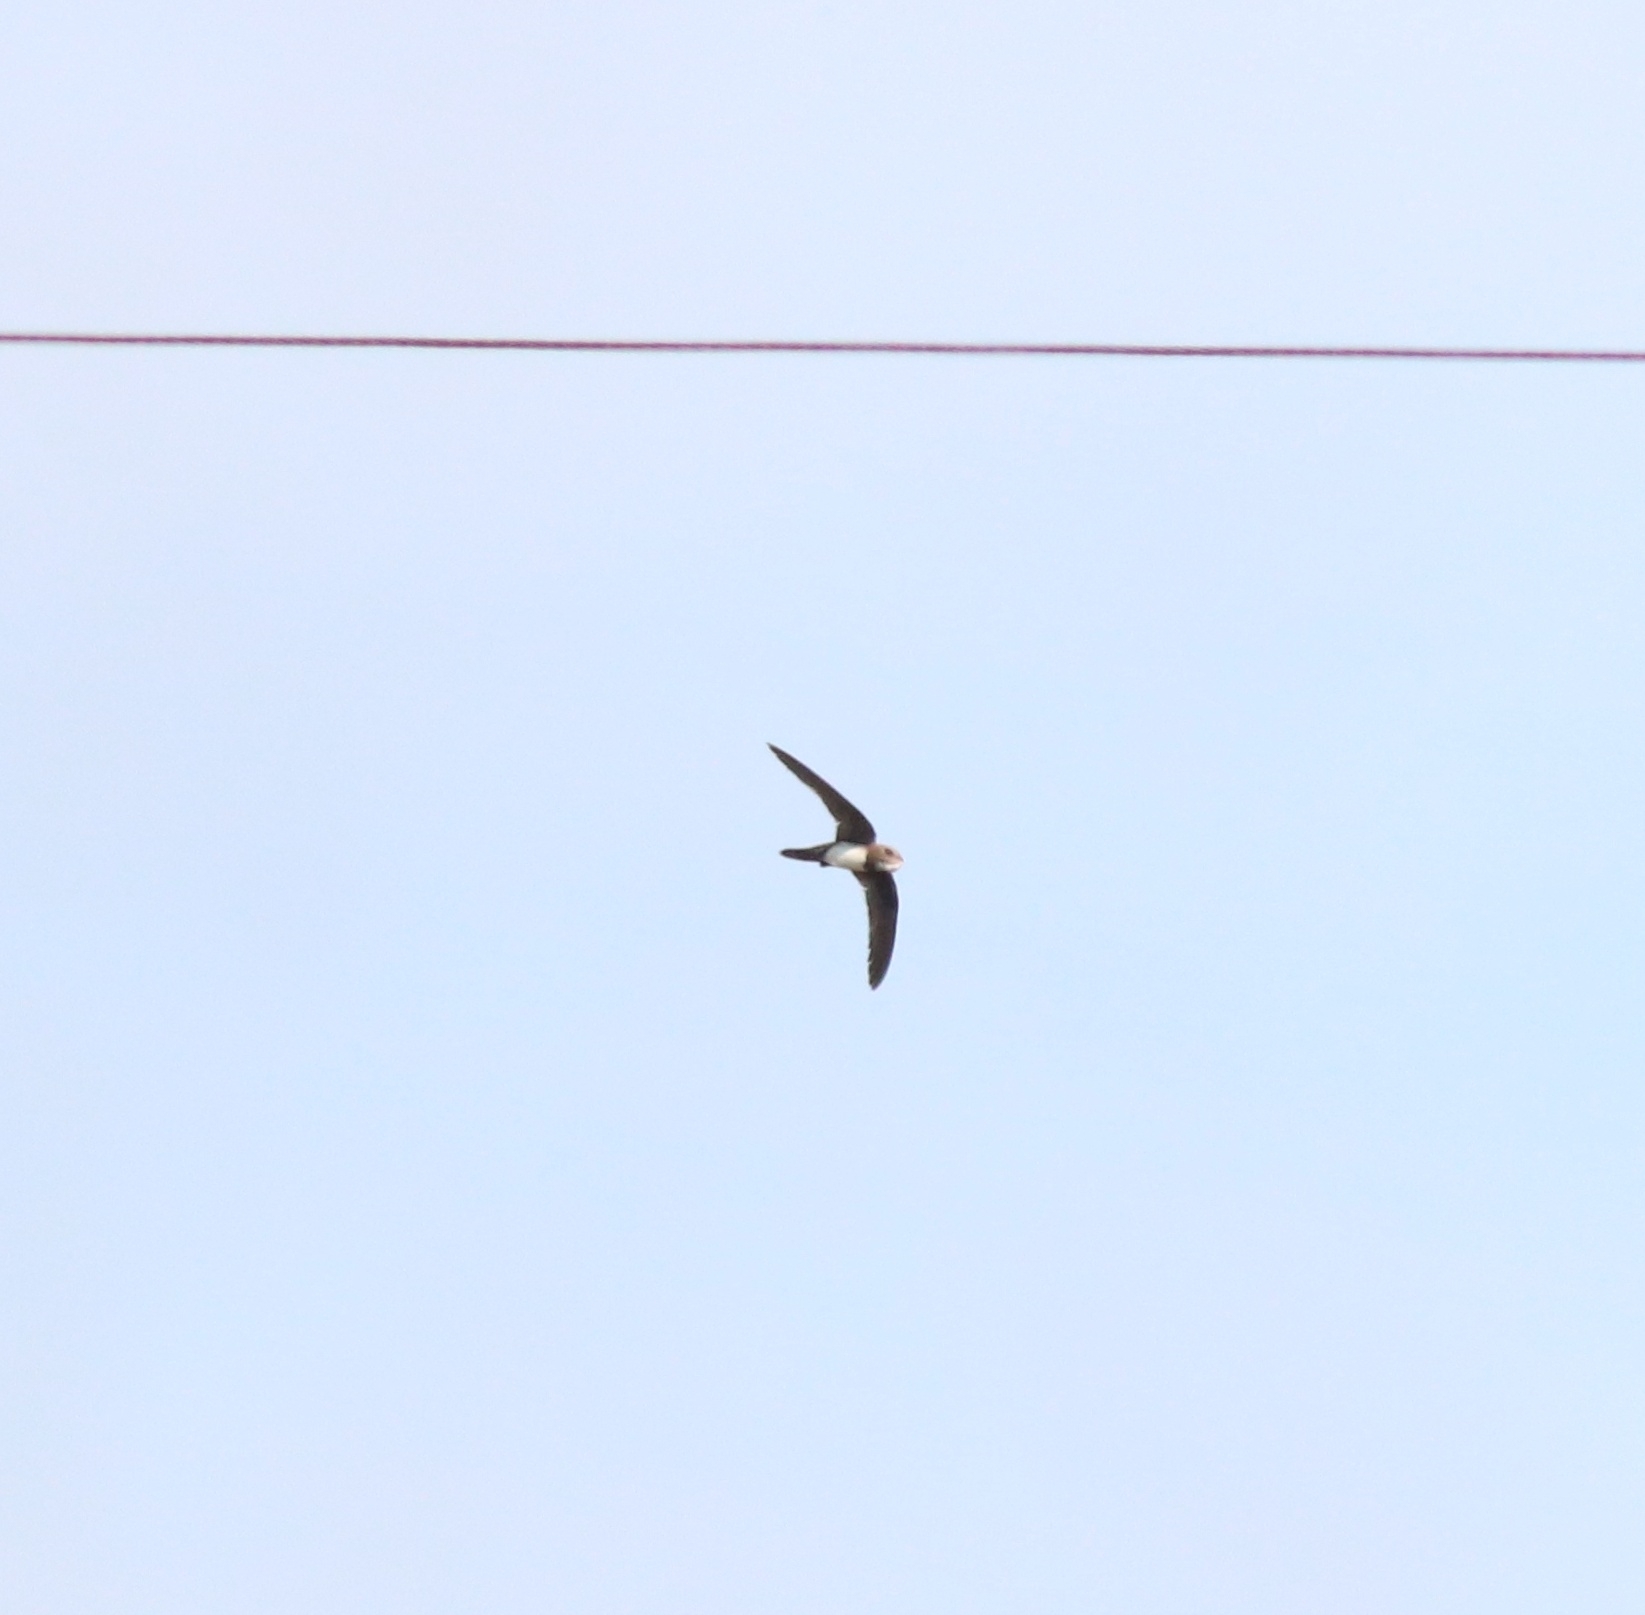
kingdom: Animalia
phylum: Chordata
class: Aves
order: Apodiformes
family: Apodidae
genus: Tachymarptis
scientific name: Tachymarptis melba
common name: Alpine swift
